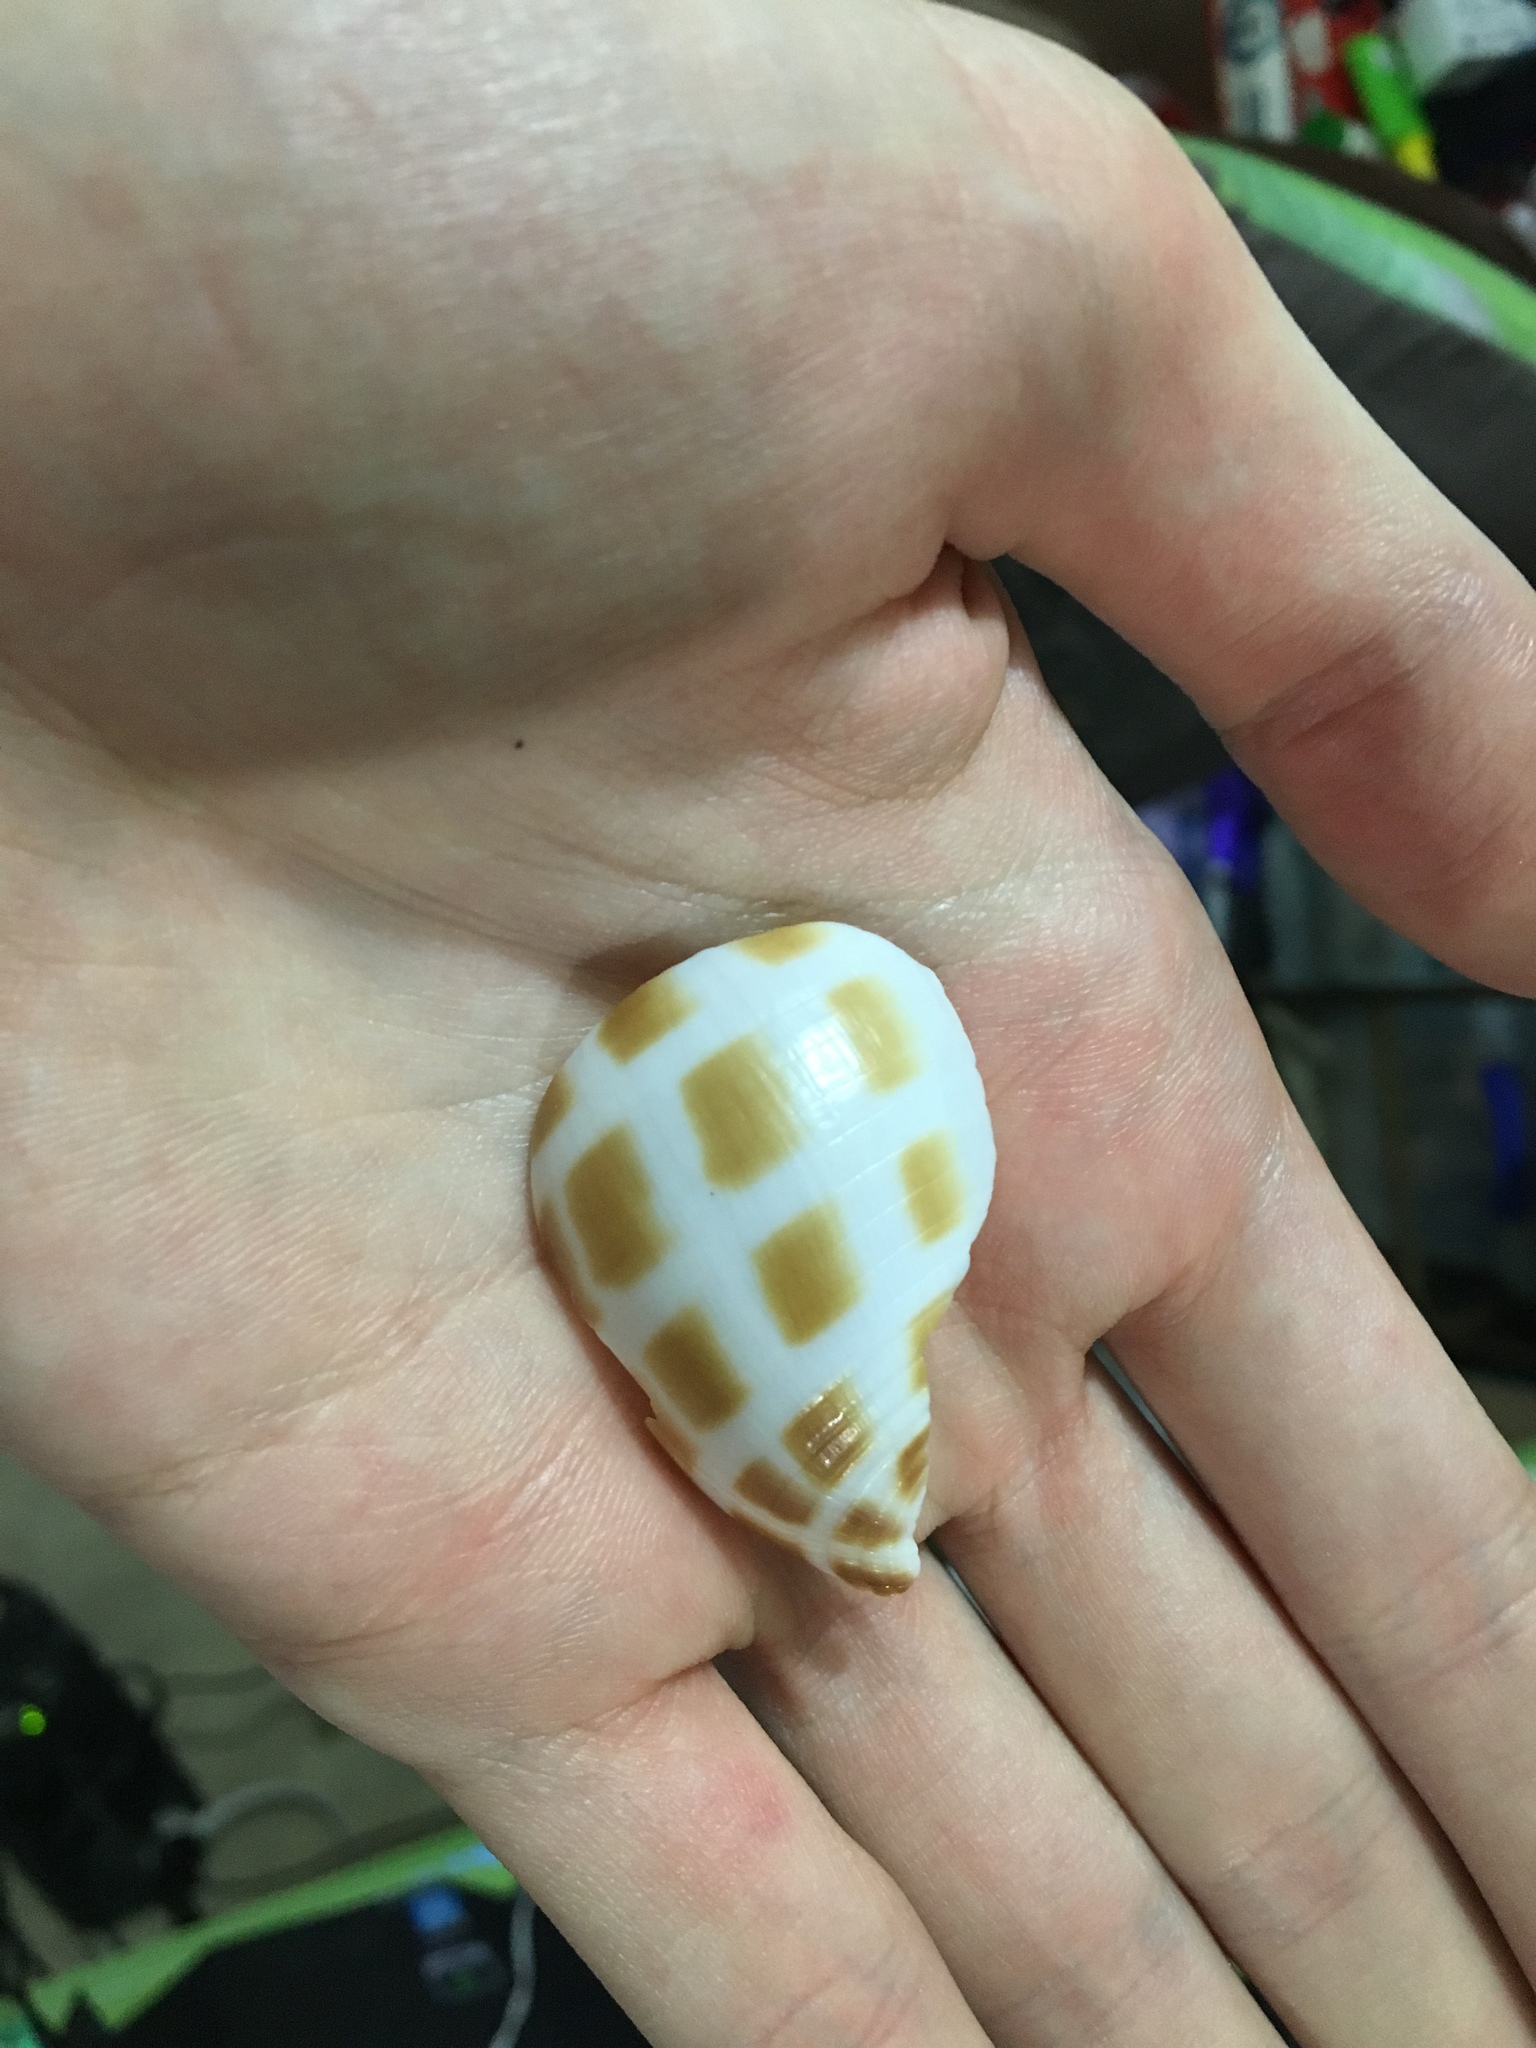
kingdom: Animalia
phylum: Mollusca
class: Gastropoda
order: Littorinimorpha
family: Cassidae
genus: Phalium
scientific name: Phalium areola
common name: Checkered bonnet
